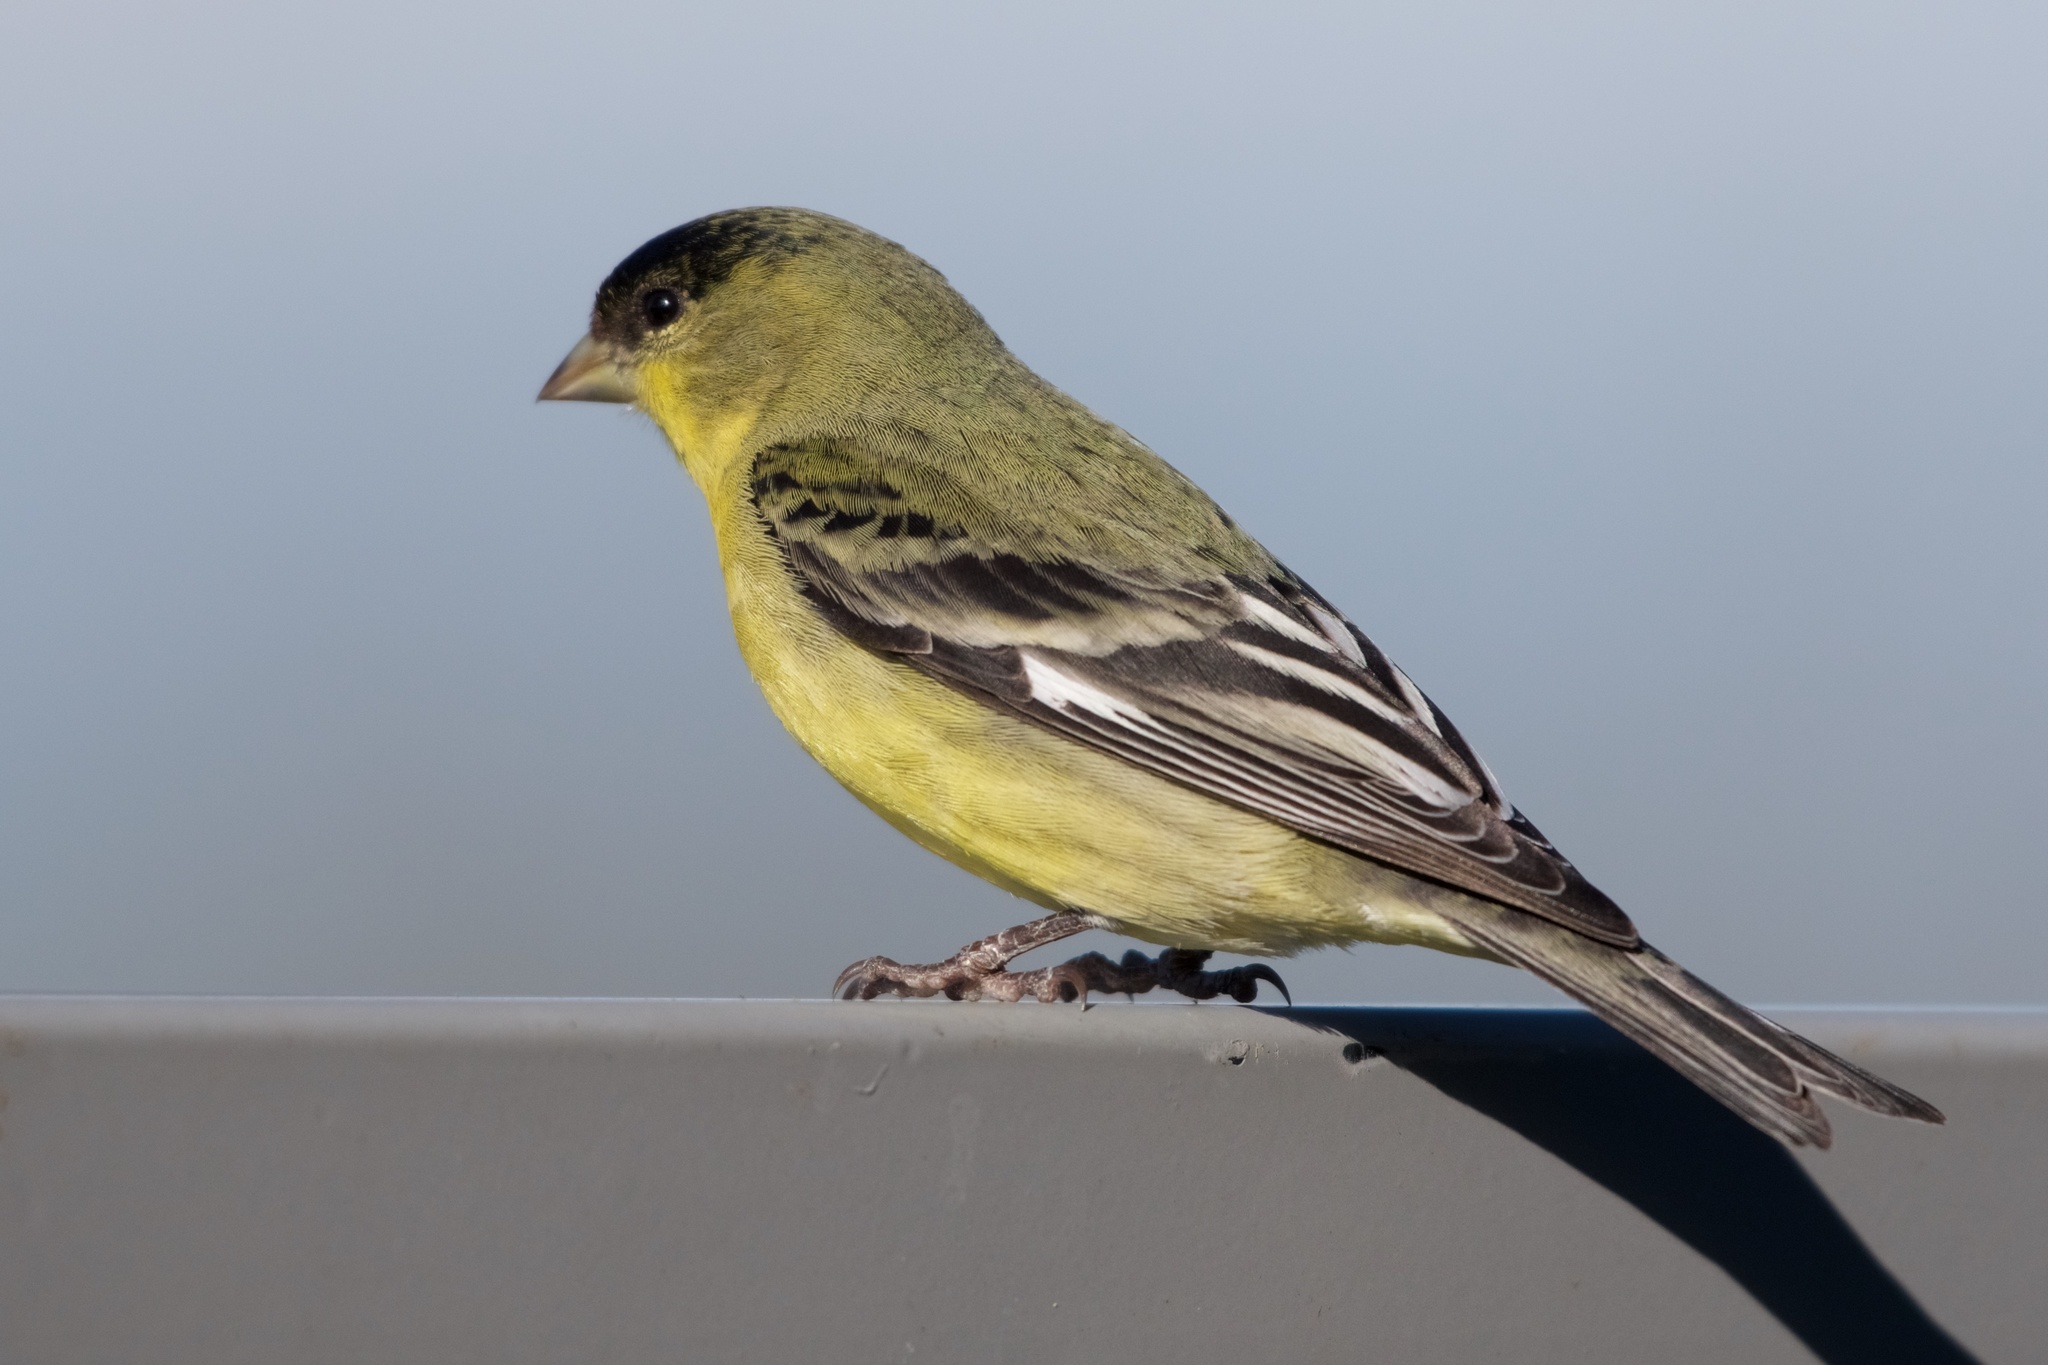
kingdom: Animalia
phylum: Chordata
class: Aves
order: Passeriformes
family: Fringillidae
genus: Spinus
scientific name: Spinus psaltria
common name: Lesser goldfinch
